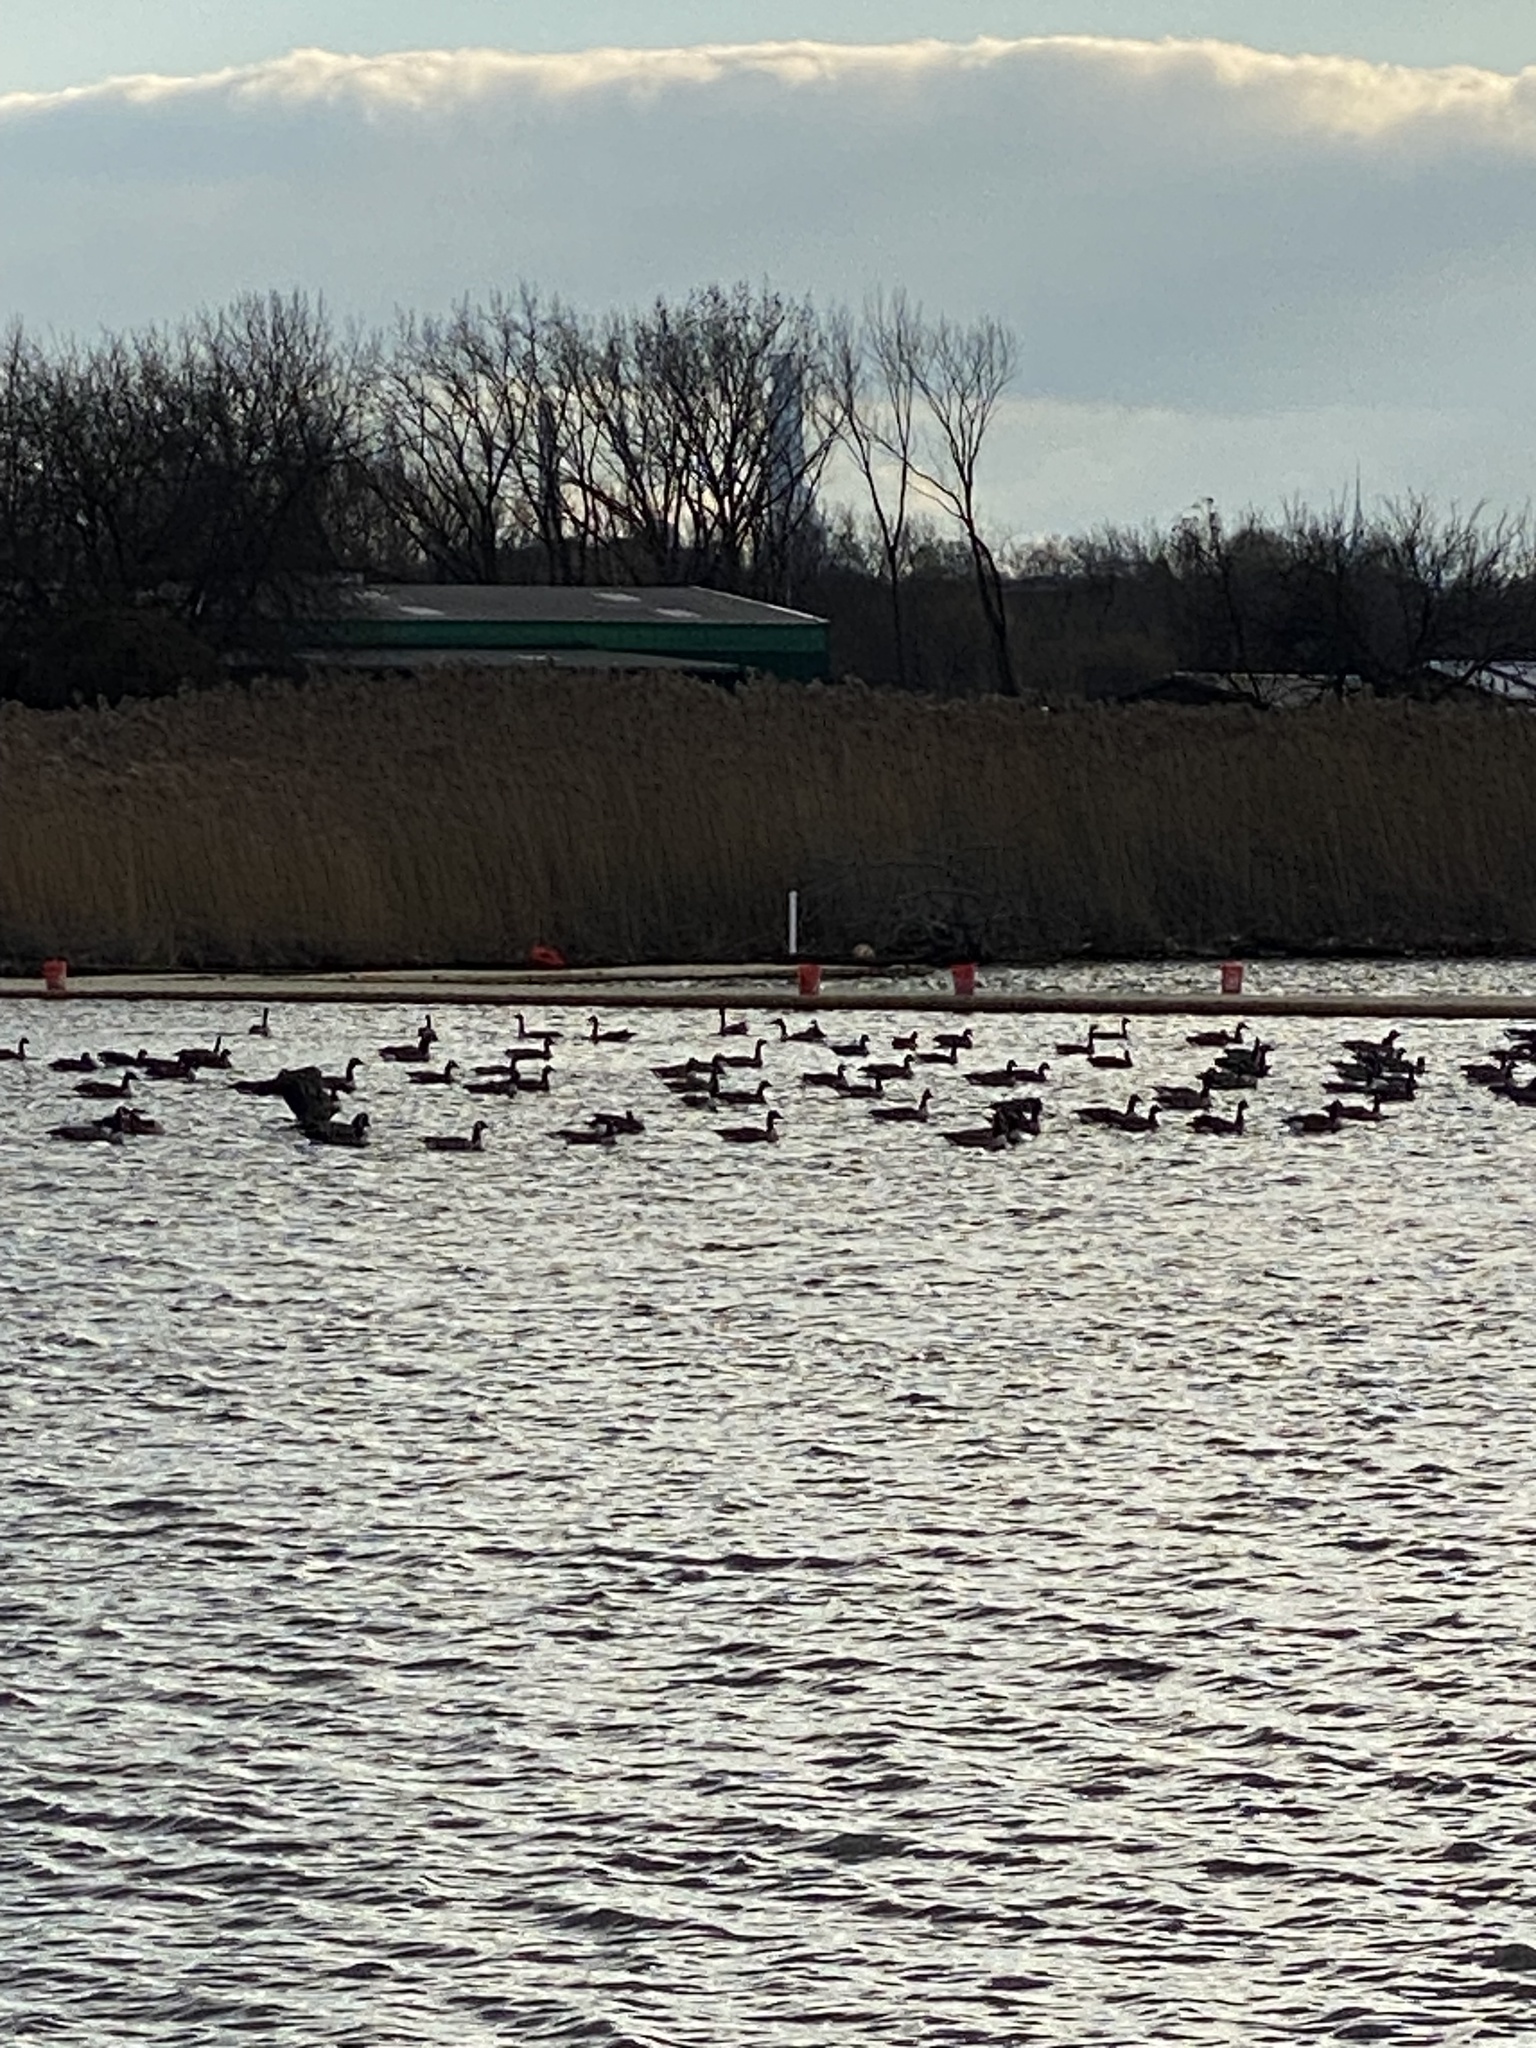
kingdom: Animalia
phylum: Chordata
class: Aves
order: Anseriformes
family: Anatidae
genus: Branta
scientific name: Branta canadensis
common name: Canada goose
